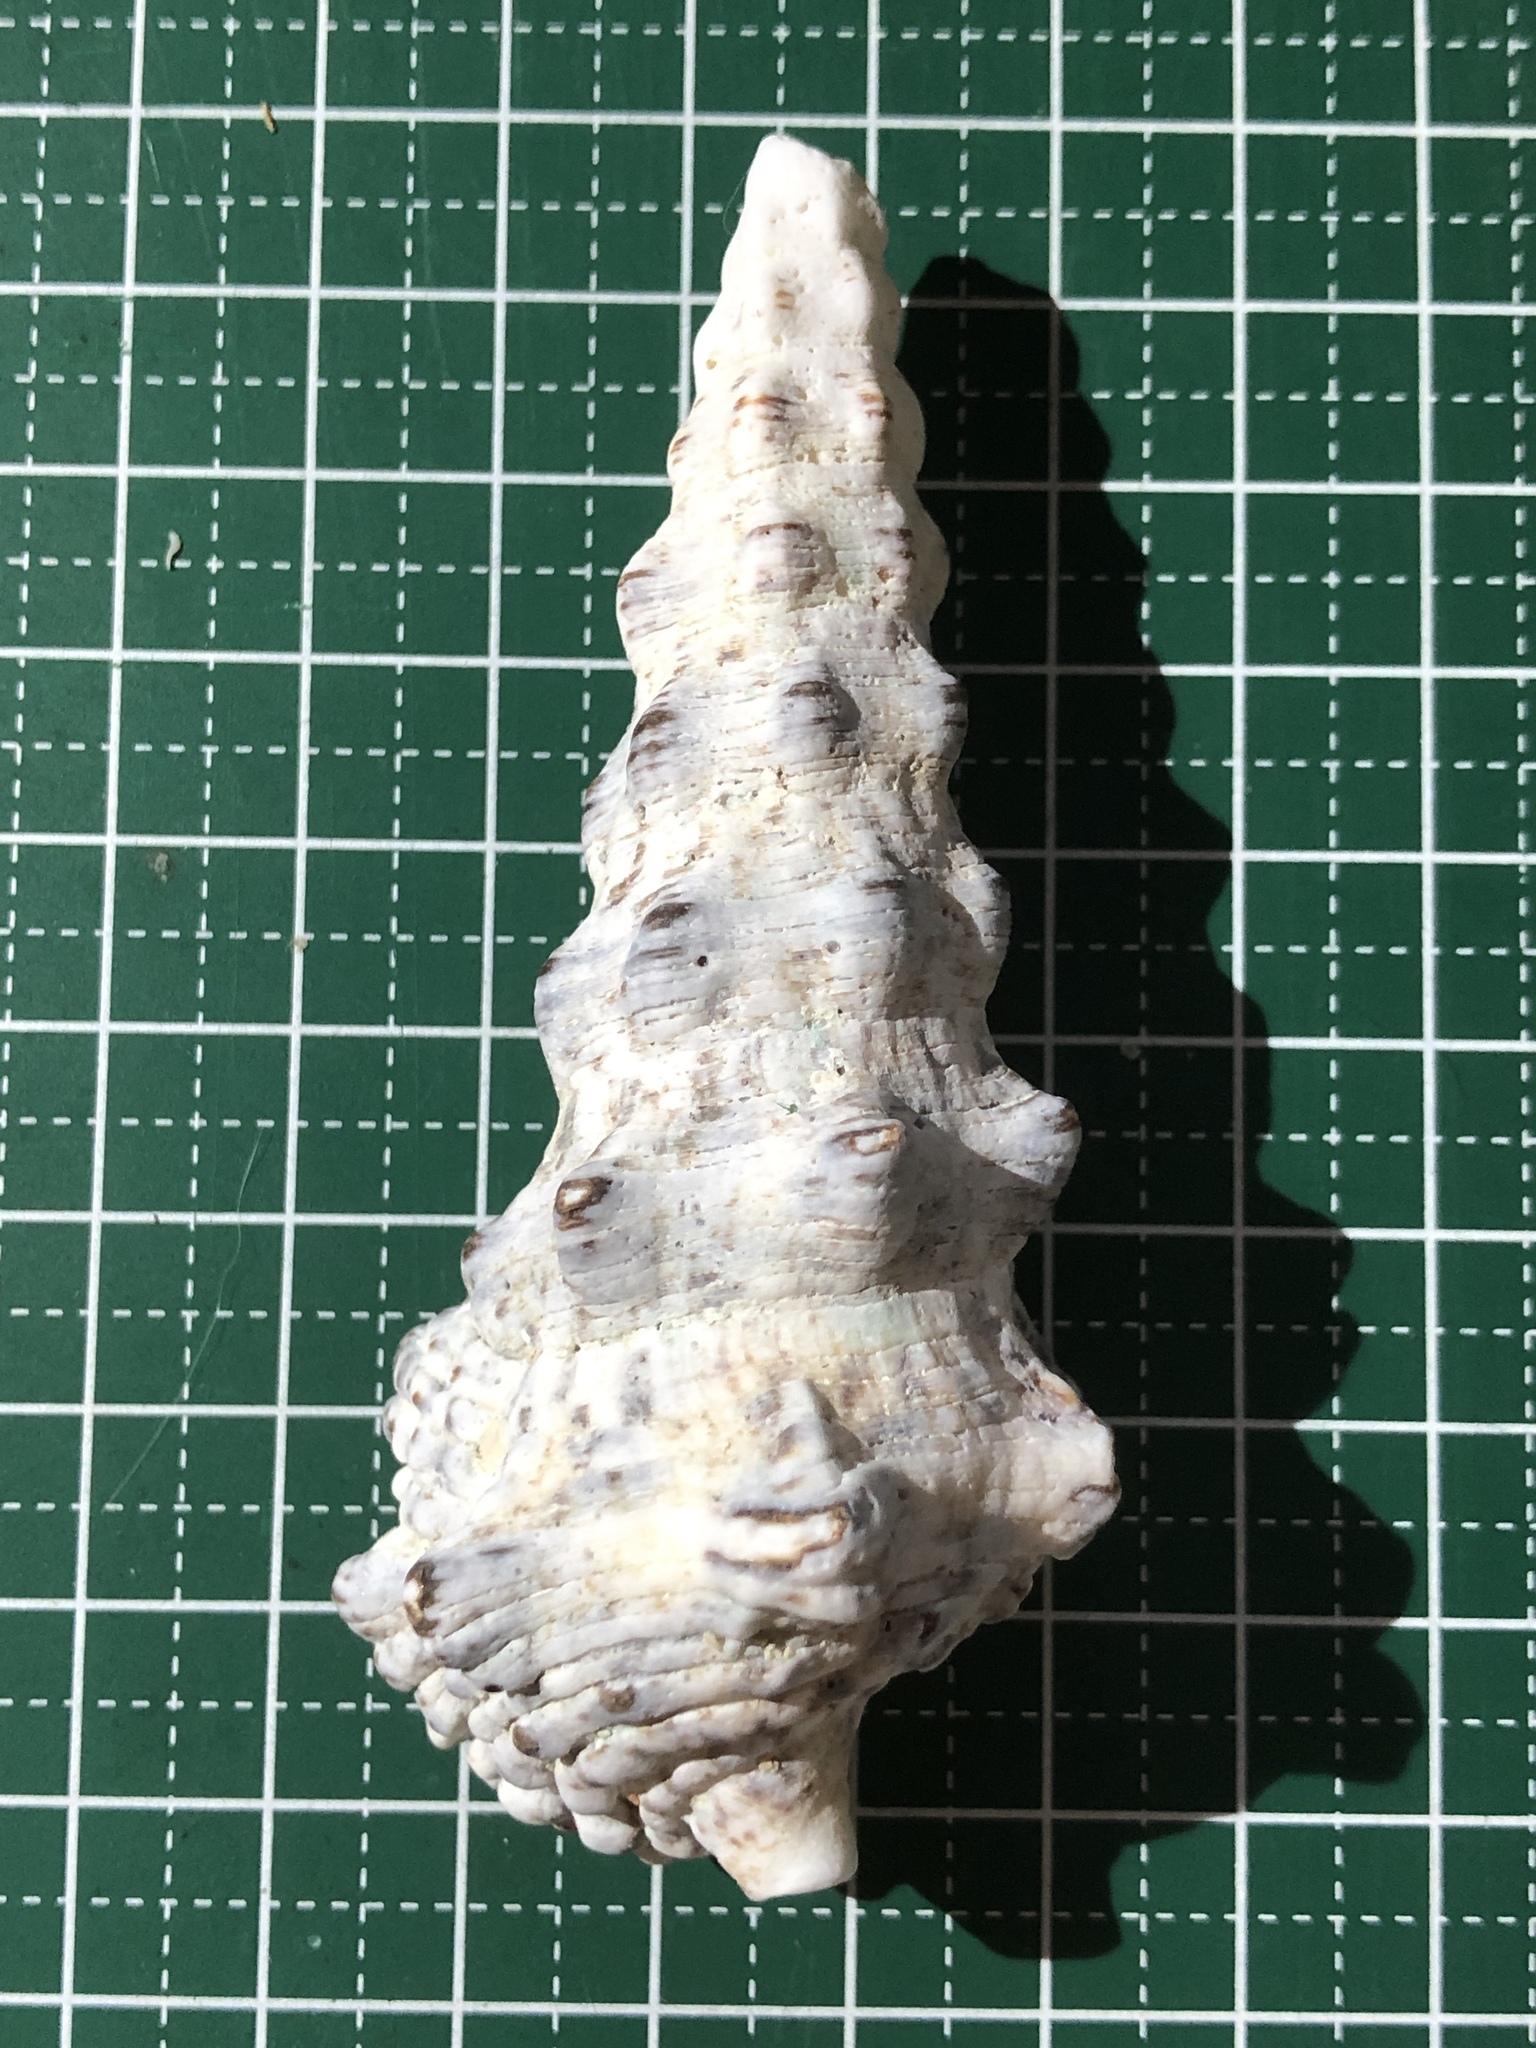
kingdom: Animalia
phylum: Mollusca
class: Gastropoda
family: Cerithiidae
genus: Cerithium
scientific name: Cerithium nodulosum
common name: Nadelschnecke giant knobbed cerith
